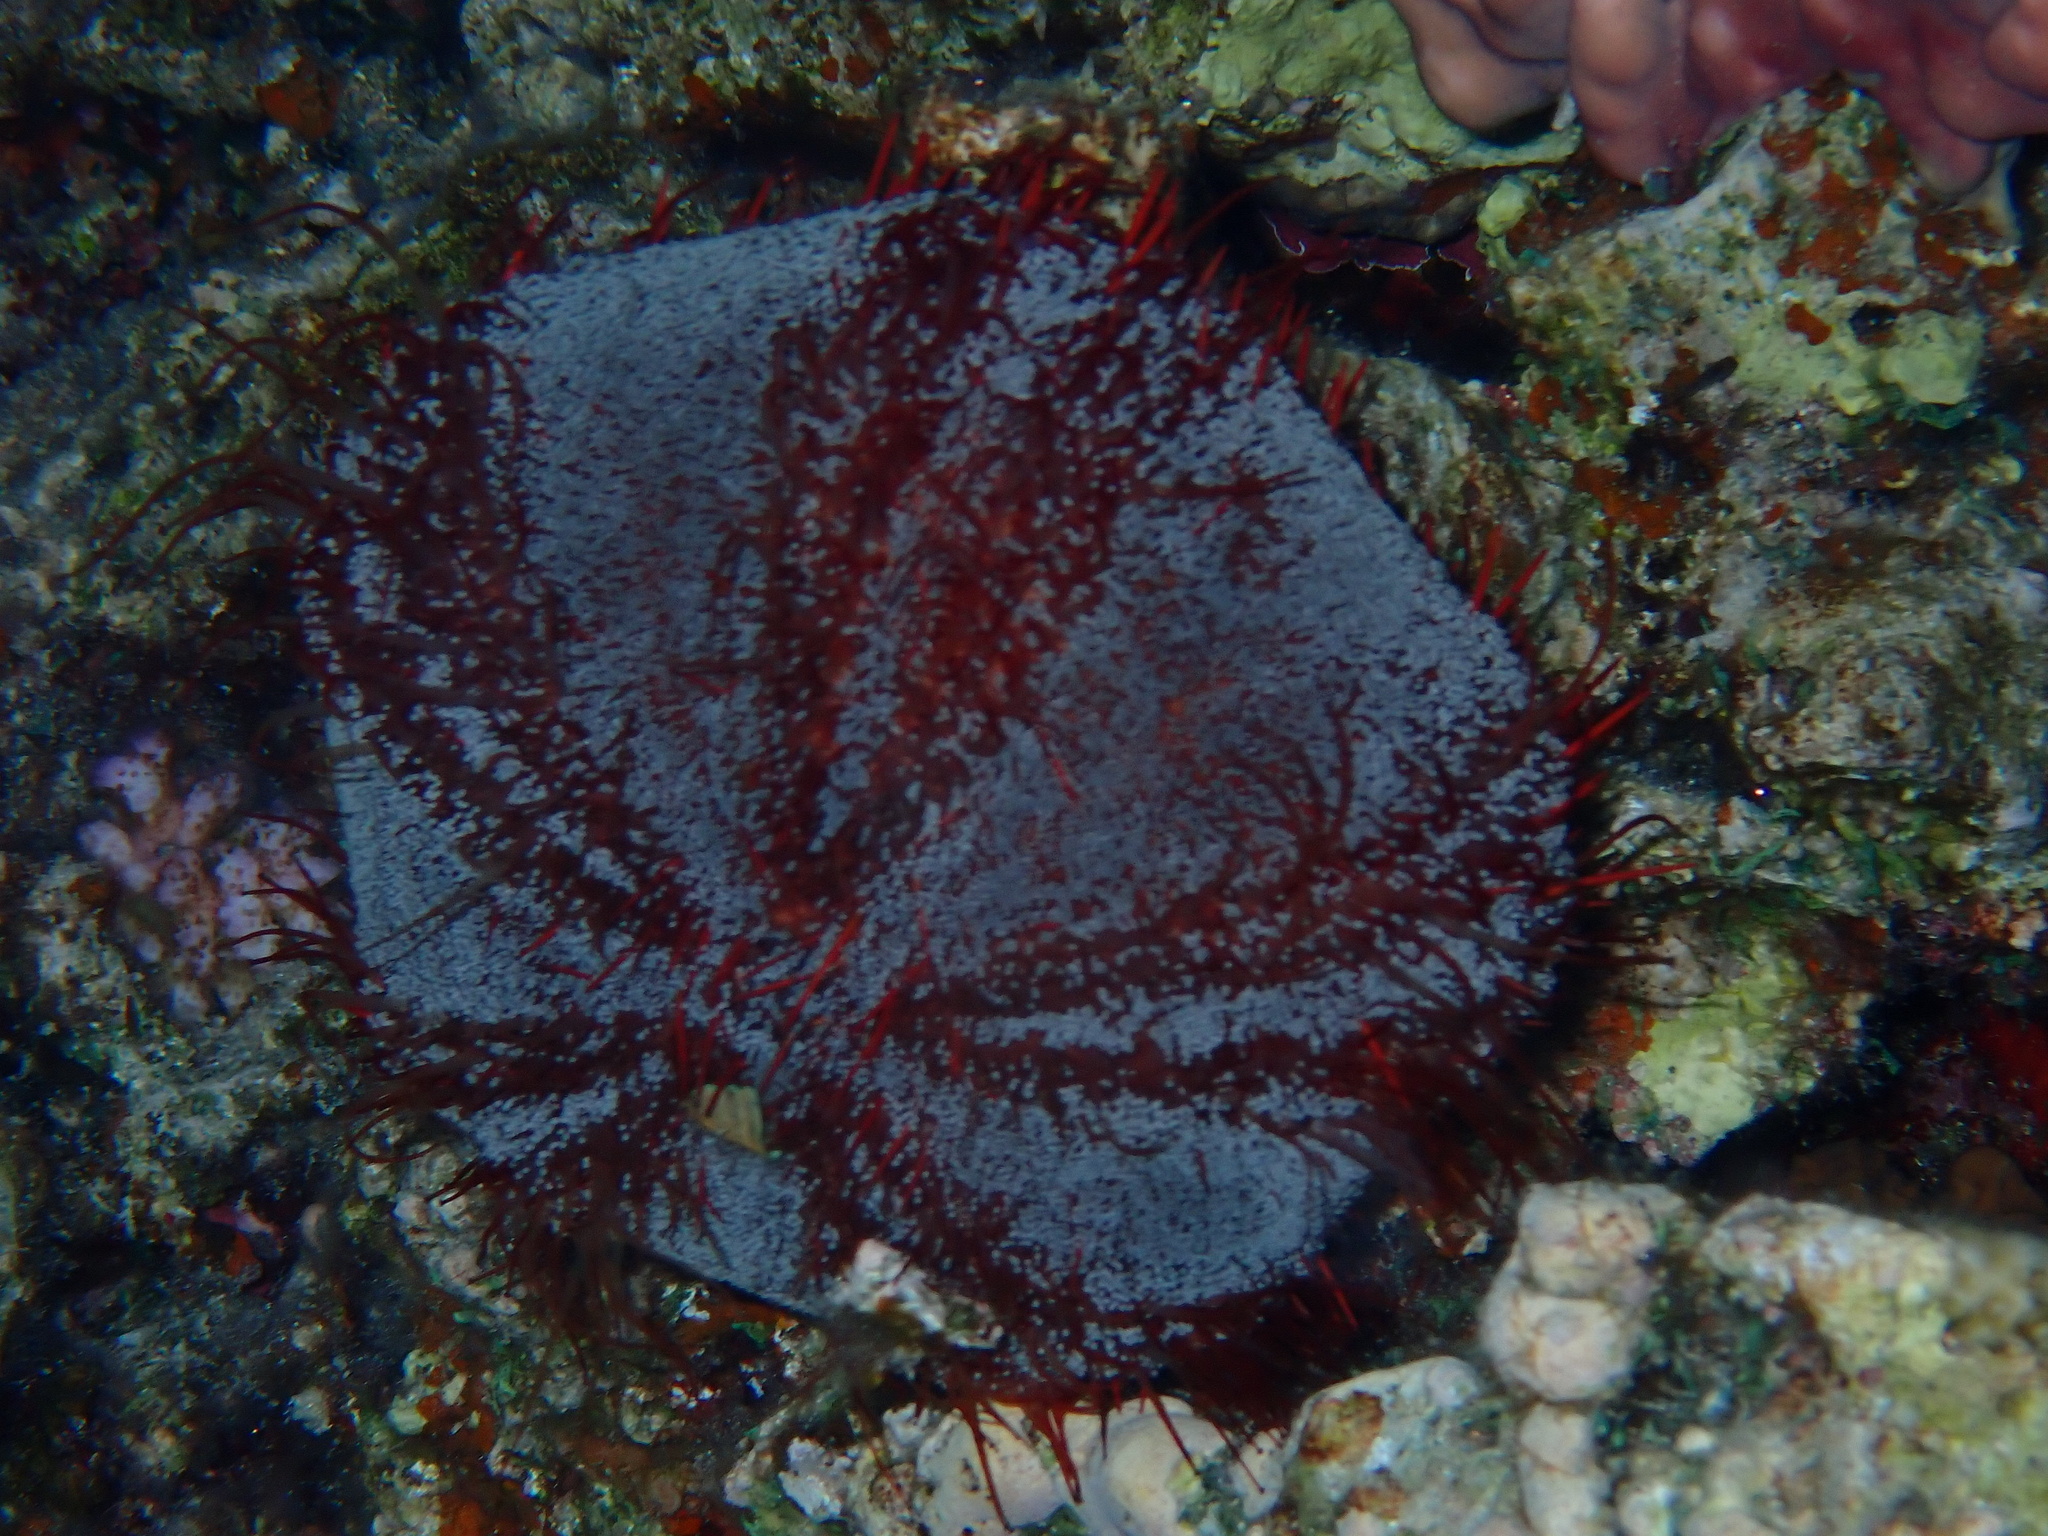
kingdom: Animalia
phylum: Echinodermata
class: Echinoidea
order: Camarodonta
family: Toxopneustidae
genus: Tripneustes
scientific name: Tripneustes gratilla
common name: Bischofsmützenseeigel
